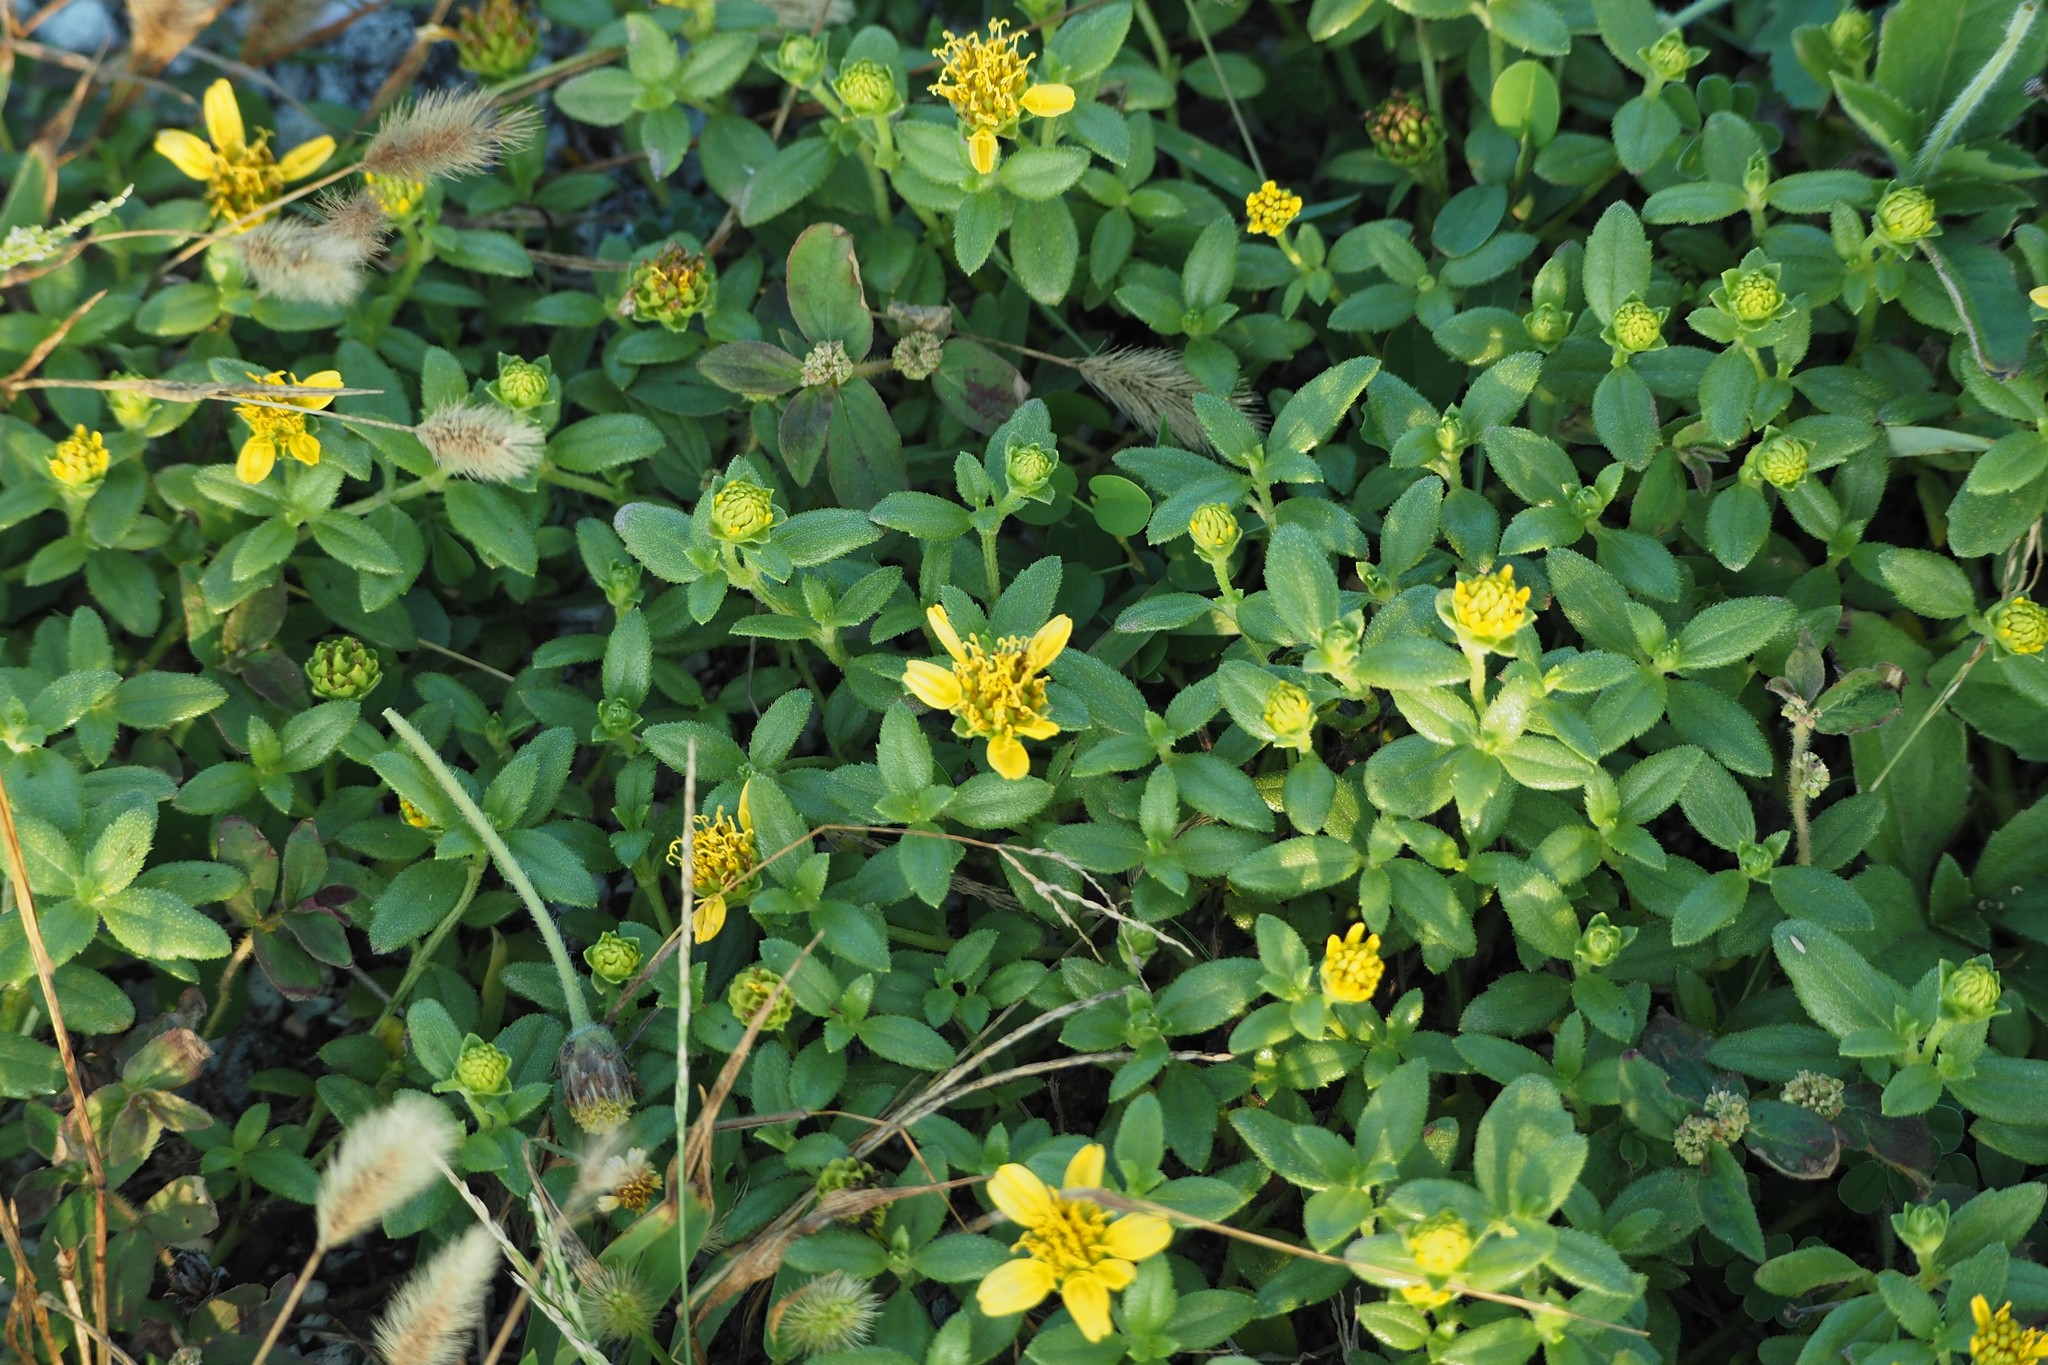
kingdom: Plantae
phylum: Tracheophyta
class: Magnoliopsida
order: Asterales
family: Asteraceae
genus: Melanthera
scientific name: Melanthera prostrata
